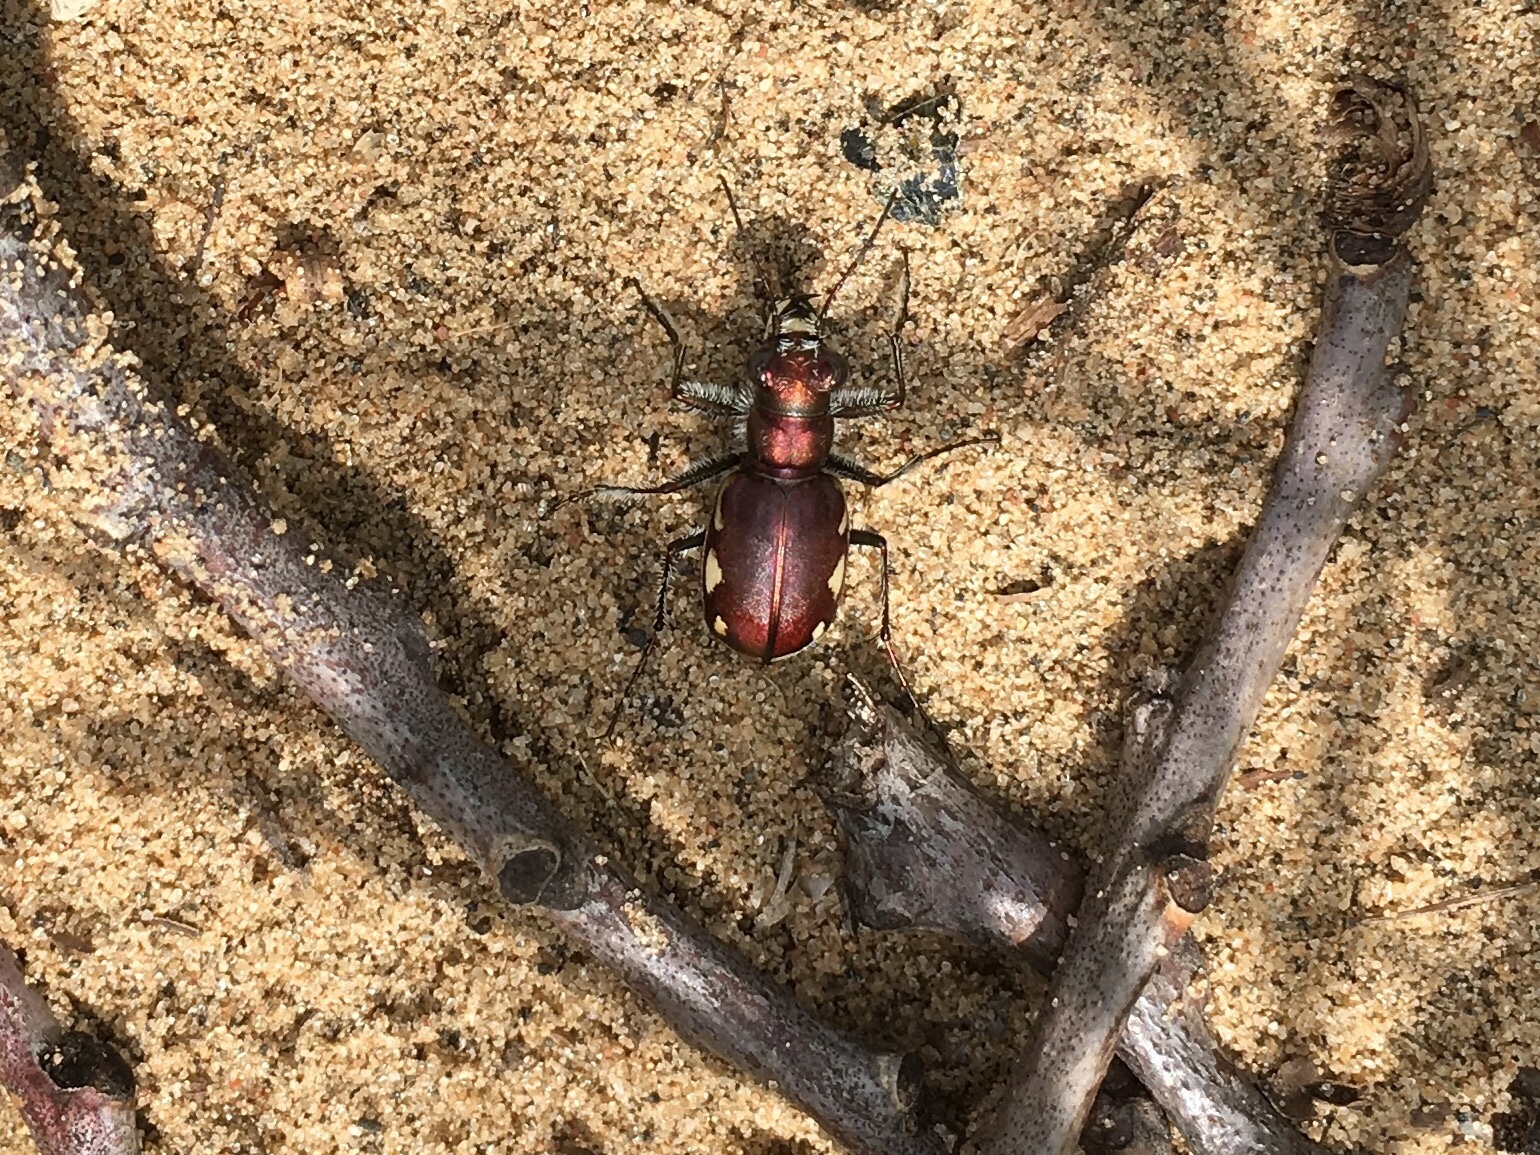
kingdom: Animalia
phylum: Arthropoda
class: Insecta
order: Coleoptera
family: Carabidae
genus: Cicindela
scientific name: Cicindela scutellaris
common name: Festive tiger beetle
